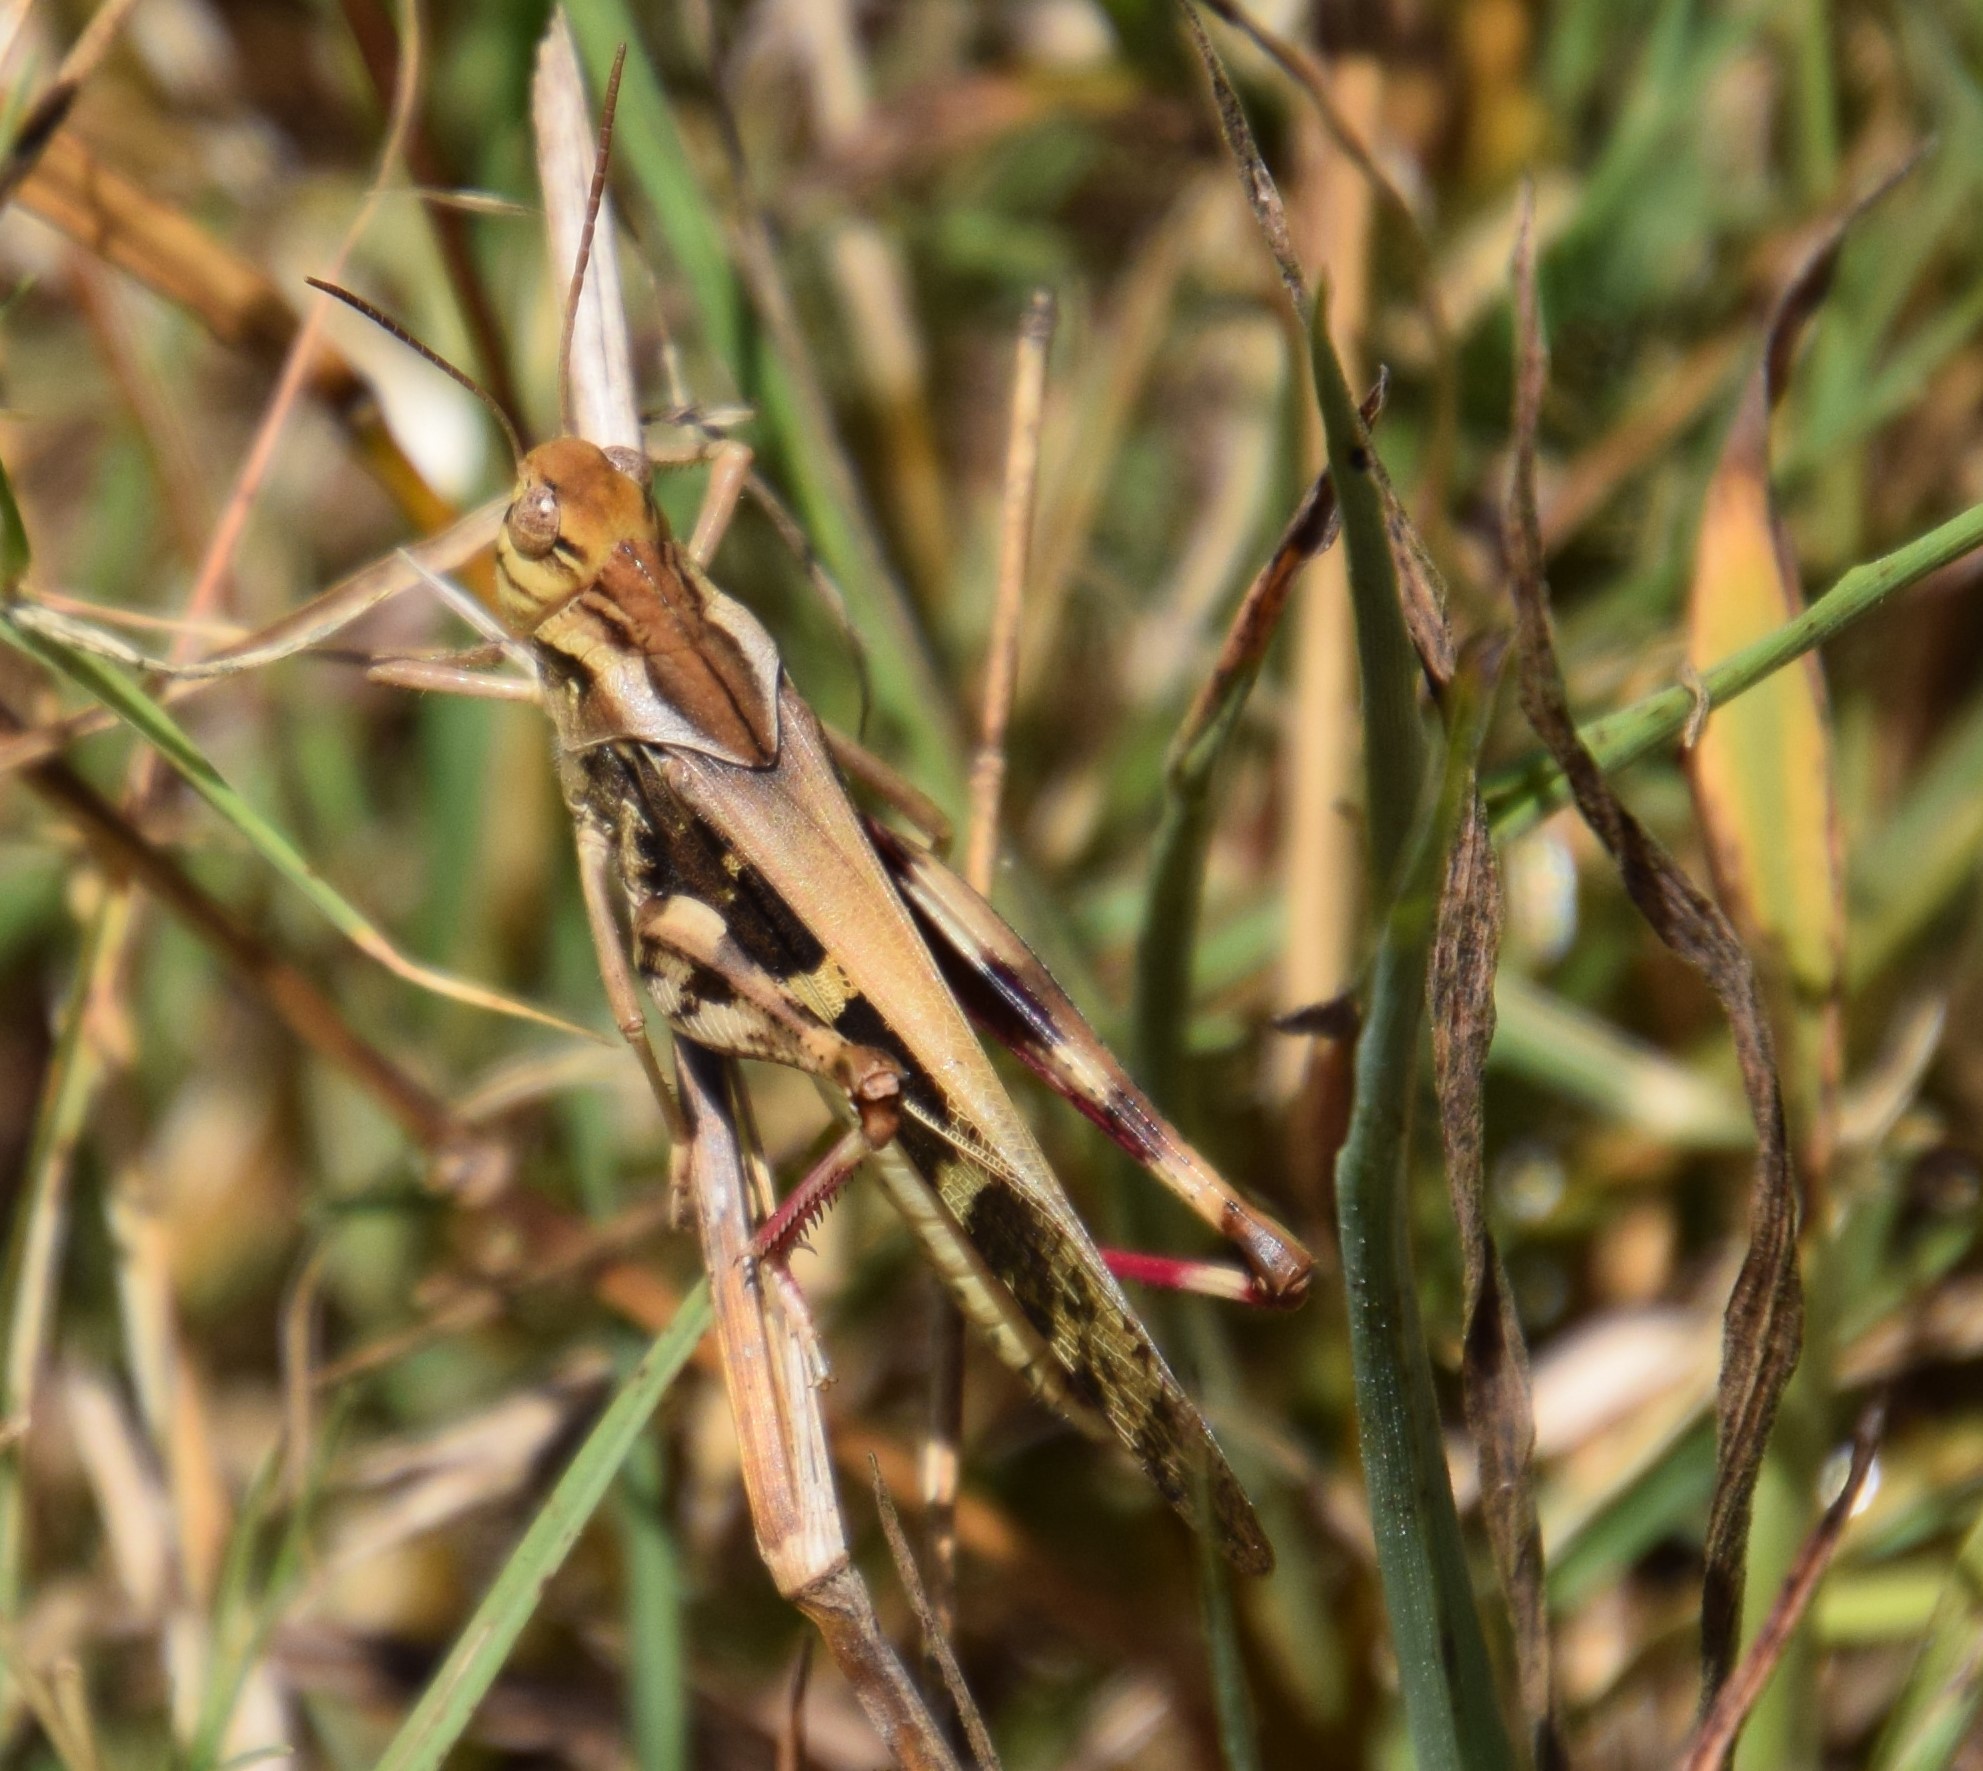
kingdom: Animalia
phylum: Arthropoda
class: Insecta
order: Orthoptera
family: Acrididae
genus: Gastrimargus
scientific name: Gastrimargus musicus
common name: Yellow-winged locust
